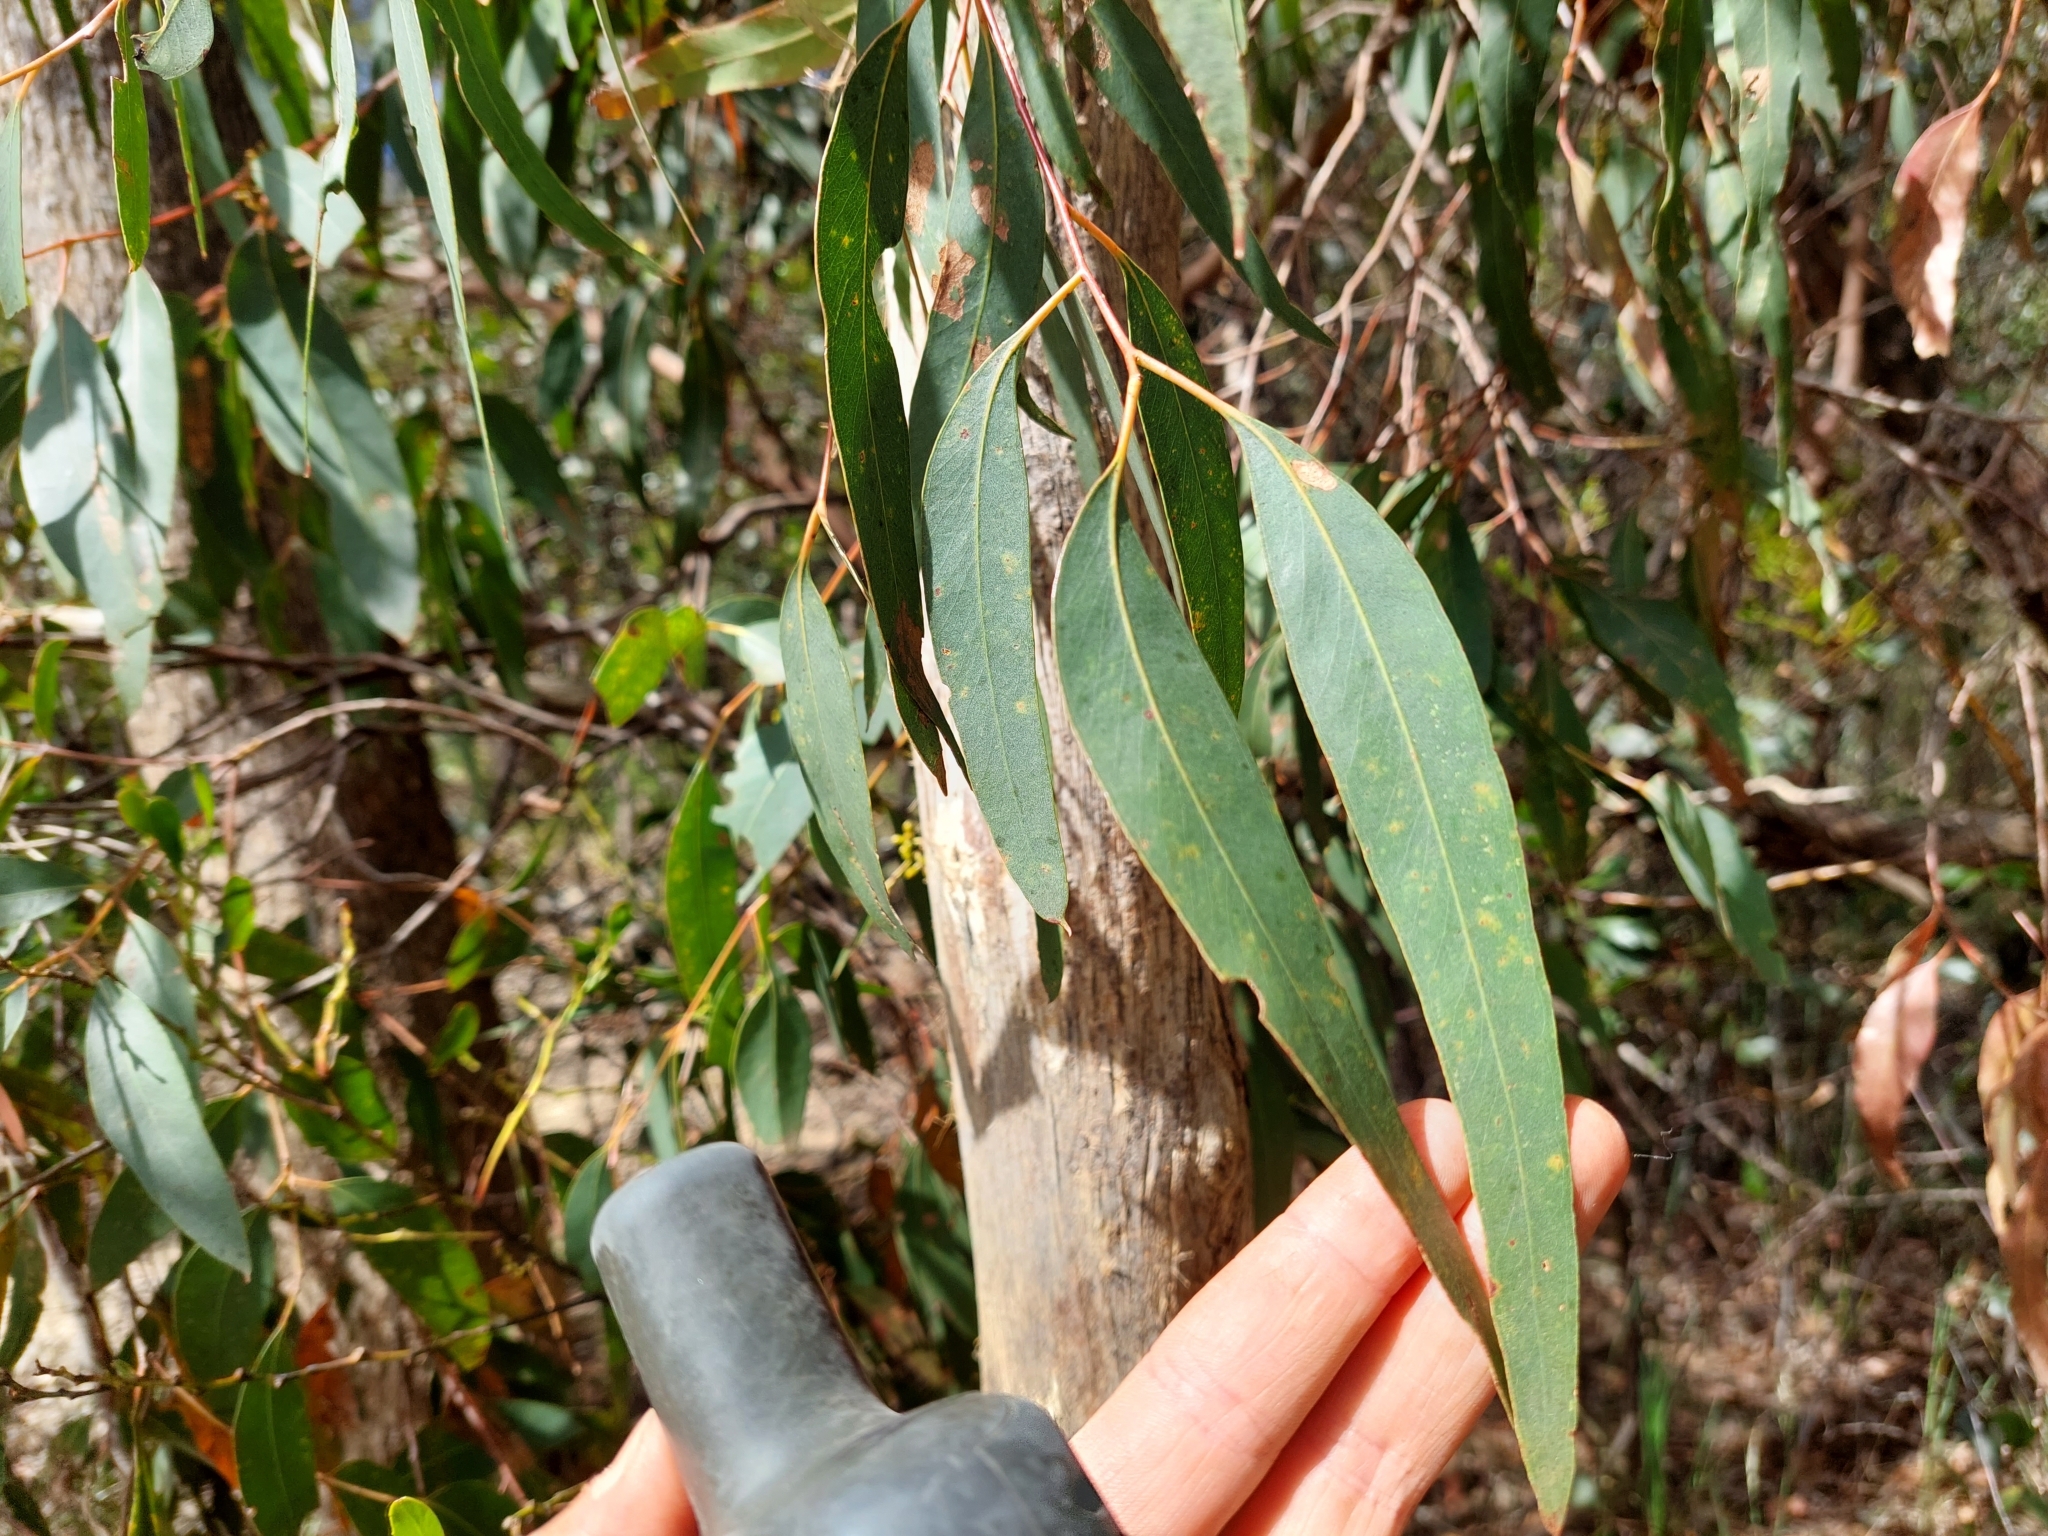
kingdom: Plantae
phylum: Tracheophyta
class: Magnoliopsida
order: Myrtales
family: Myrtaceae
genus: Eucalyptus
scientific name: Eucalyptus ignorabilis
